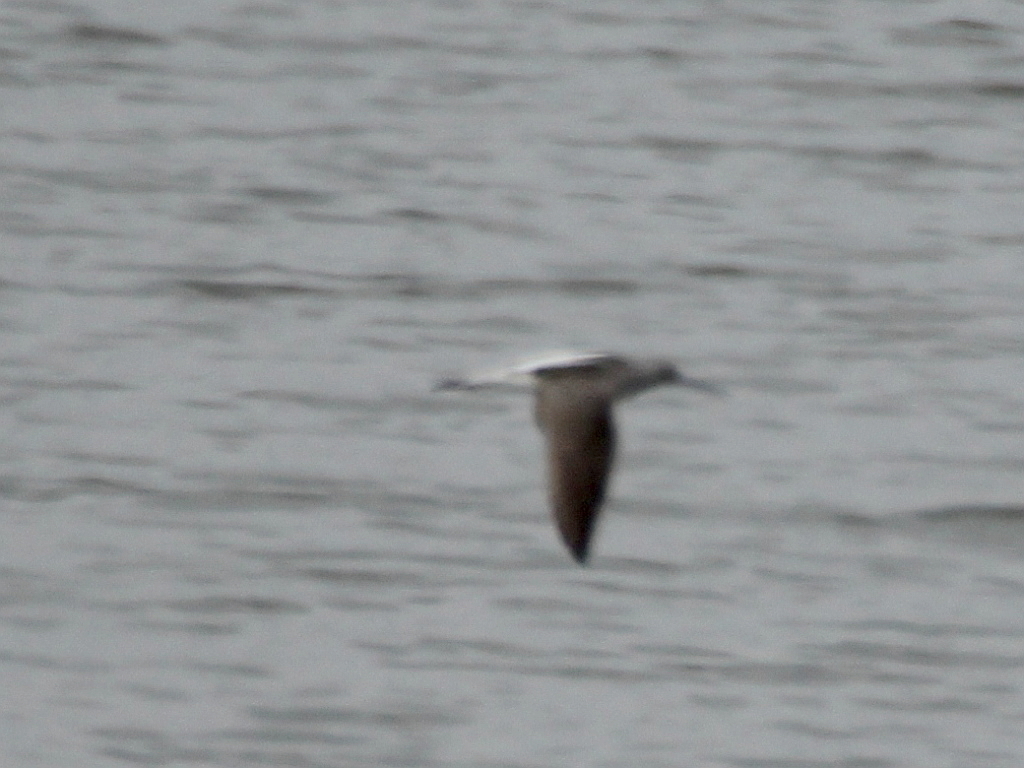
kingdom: Animalia
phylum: Chordata
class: Aves
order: Charadriiformes
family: Scolopacidae
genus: Tringa
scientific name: Tringa nebularia
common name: Common greenshank
